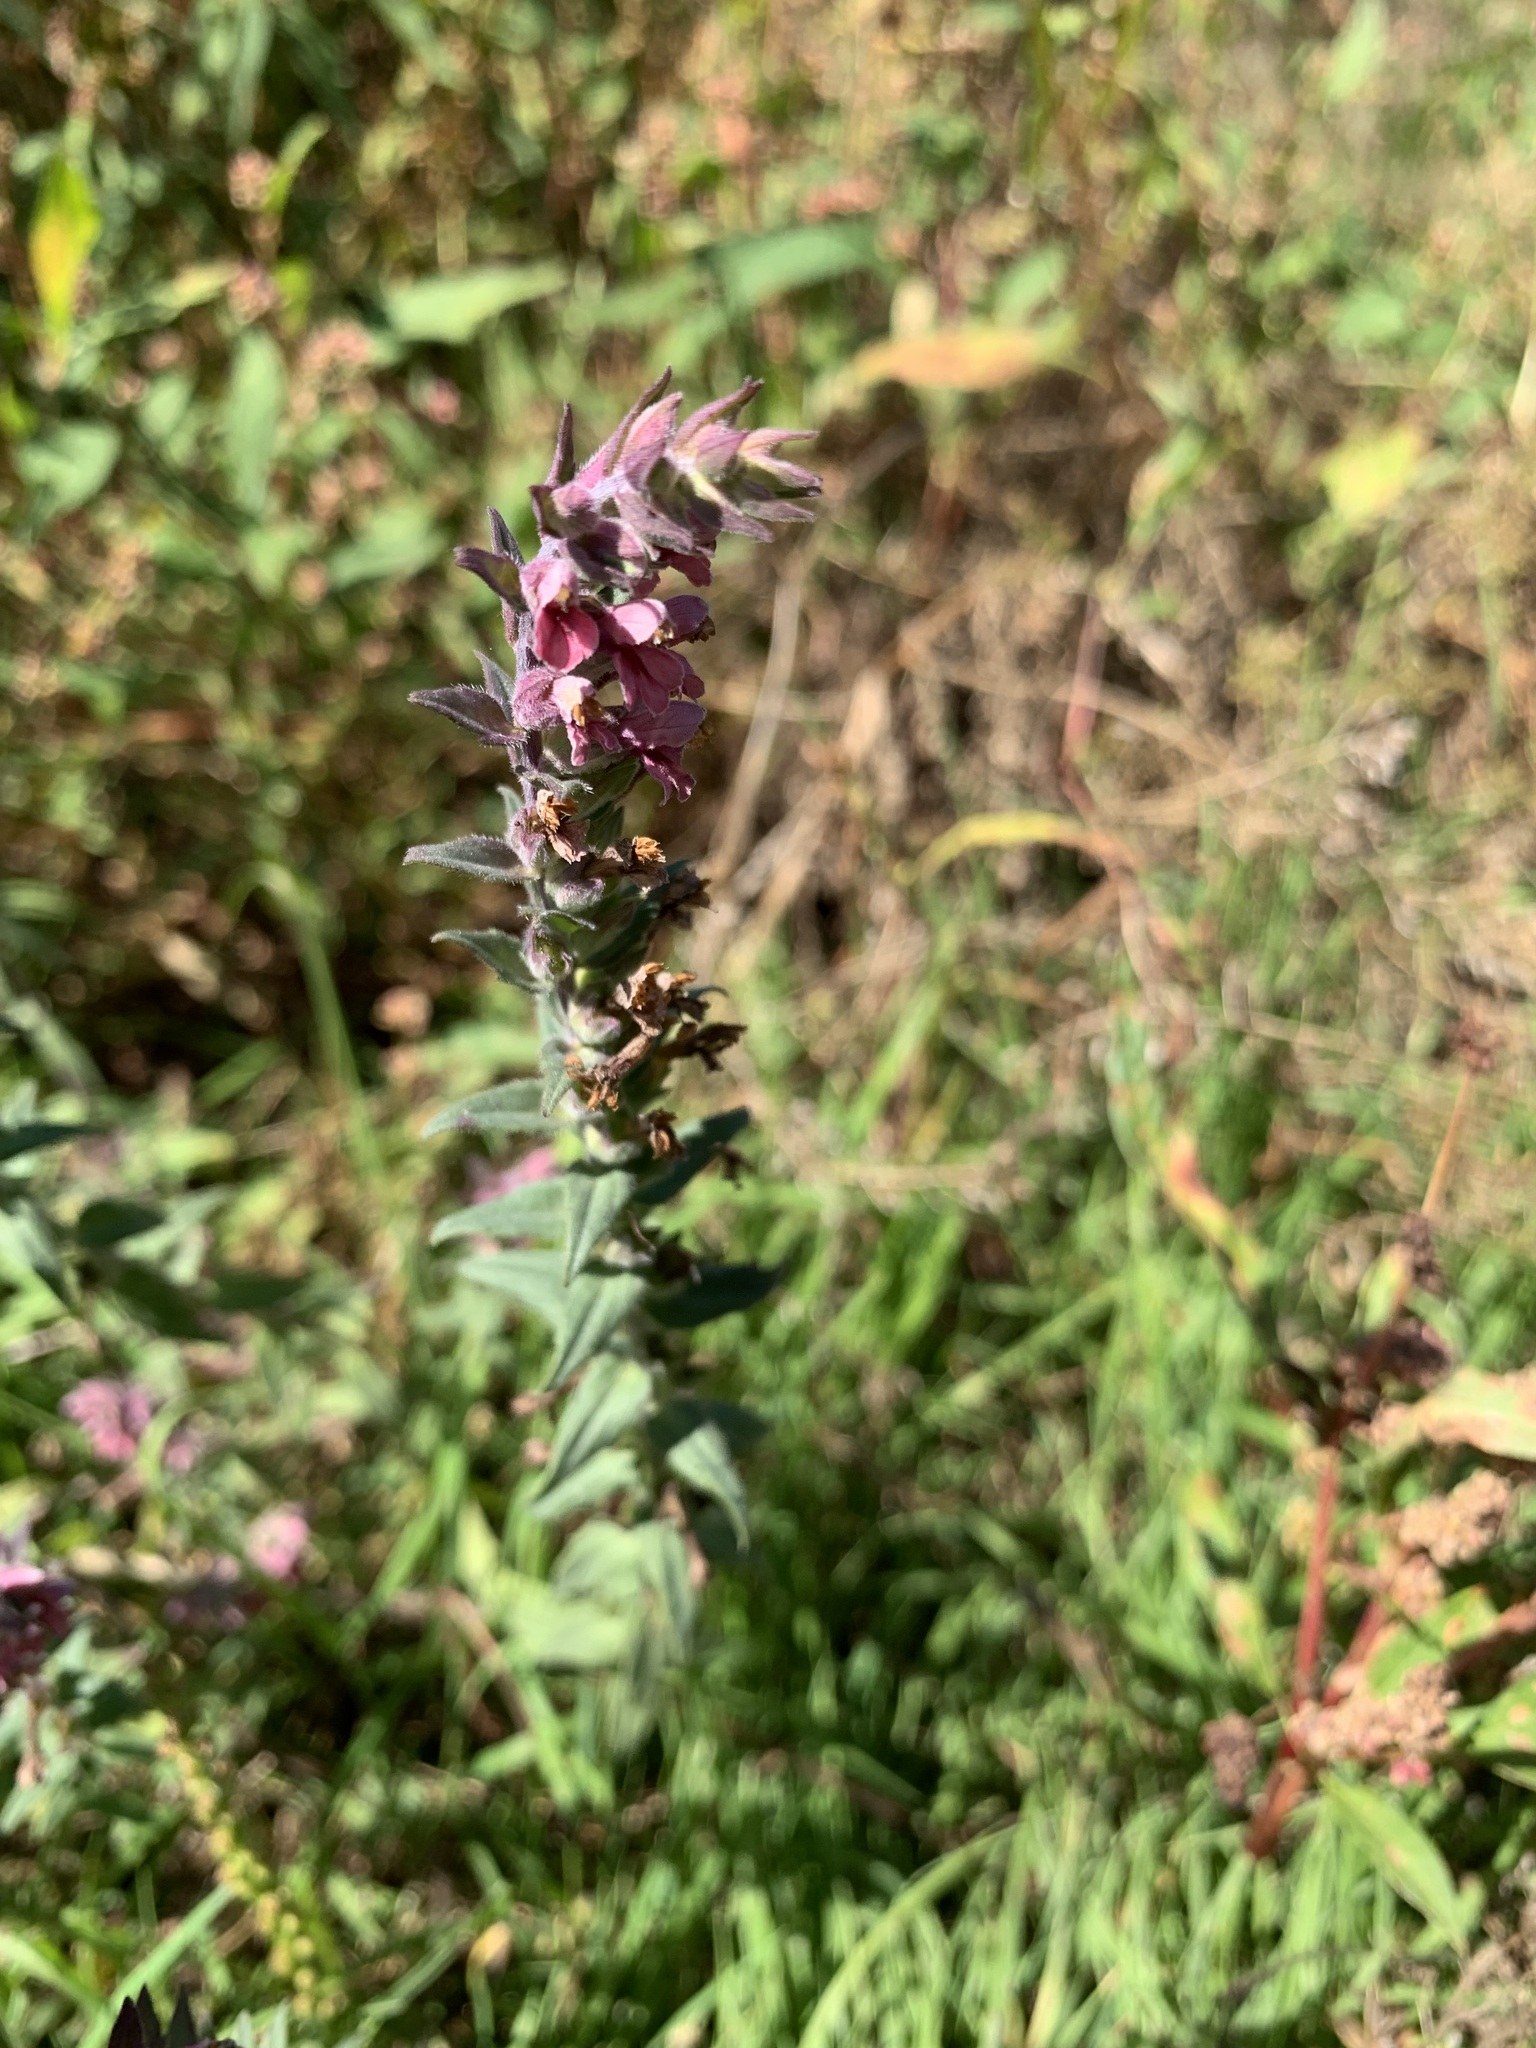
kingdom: Plantae
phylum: Tracheophyta
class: Magnoliopsida
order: Lamiales
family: Orobanchaceae
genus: Odontites
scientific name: Odontites vulgaris
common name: Broomrape
